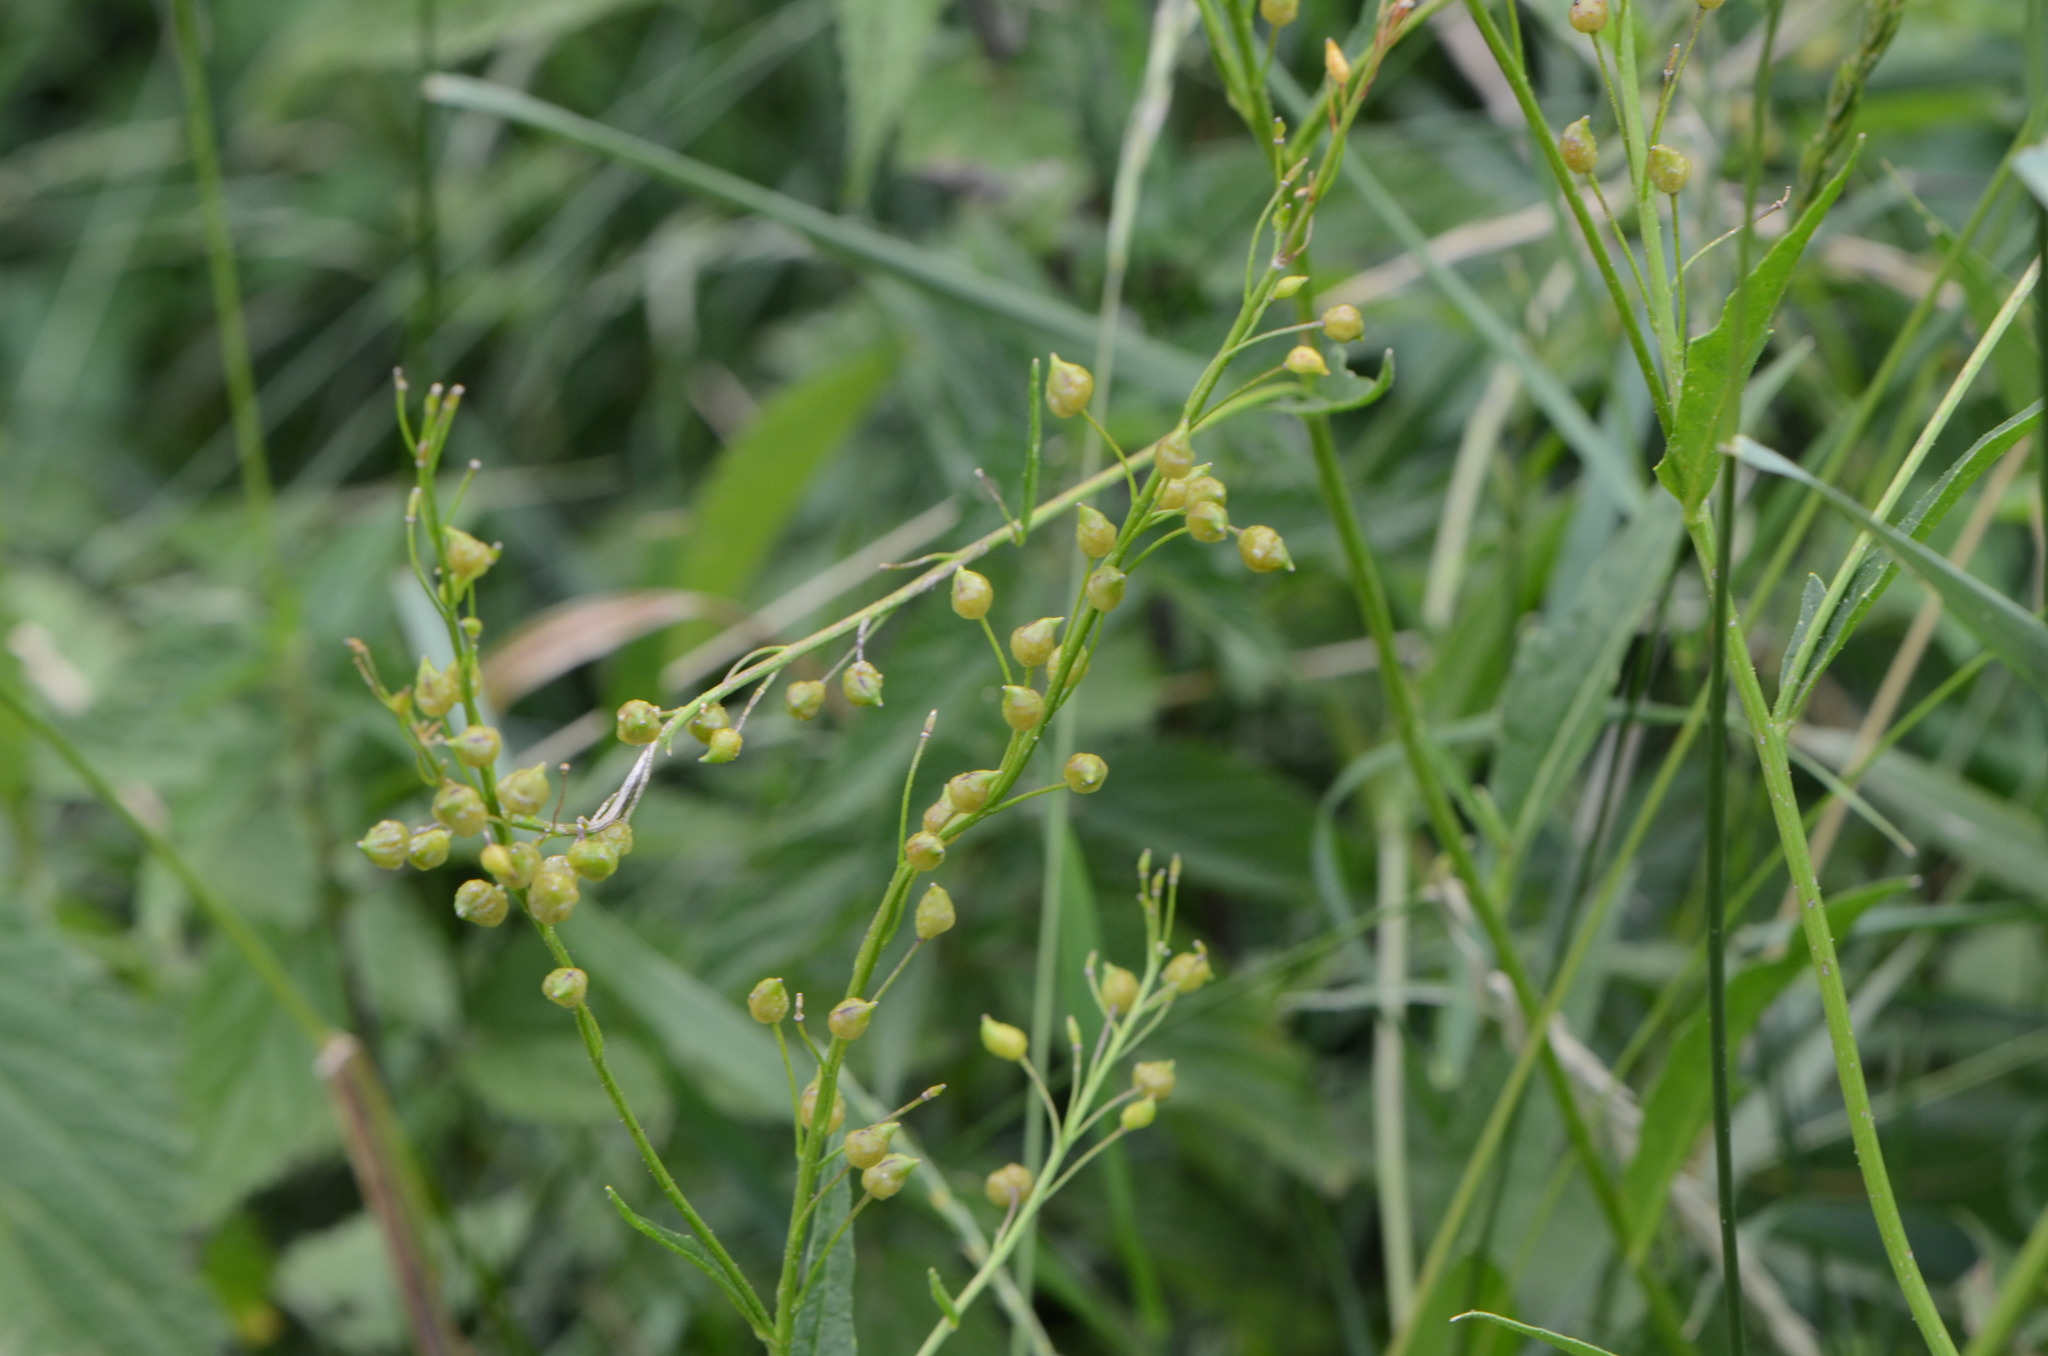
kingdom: Plantae
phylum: Tracheophyta
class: Magnoliopsida
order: Brassicales
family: Brassicaceae
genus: Bunias
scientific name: Bunias orientalis
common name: Warty-cabbage
